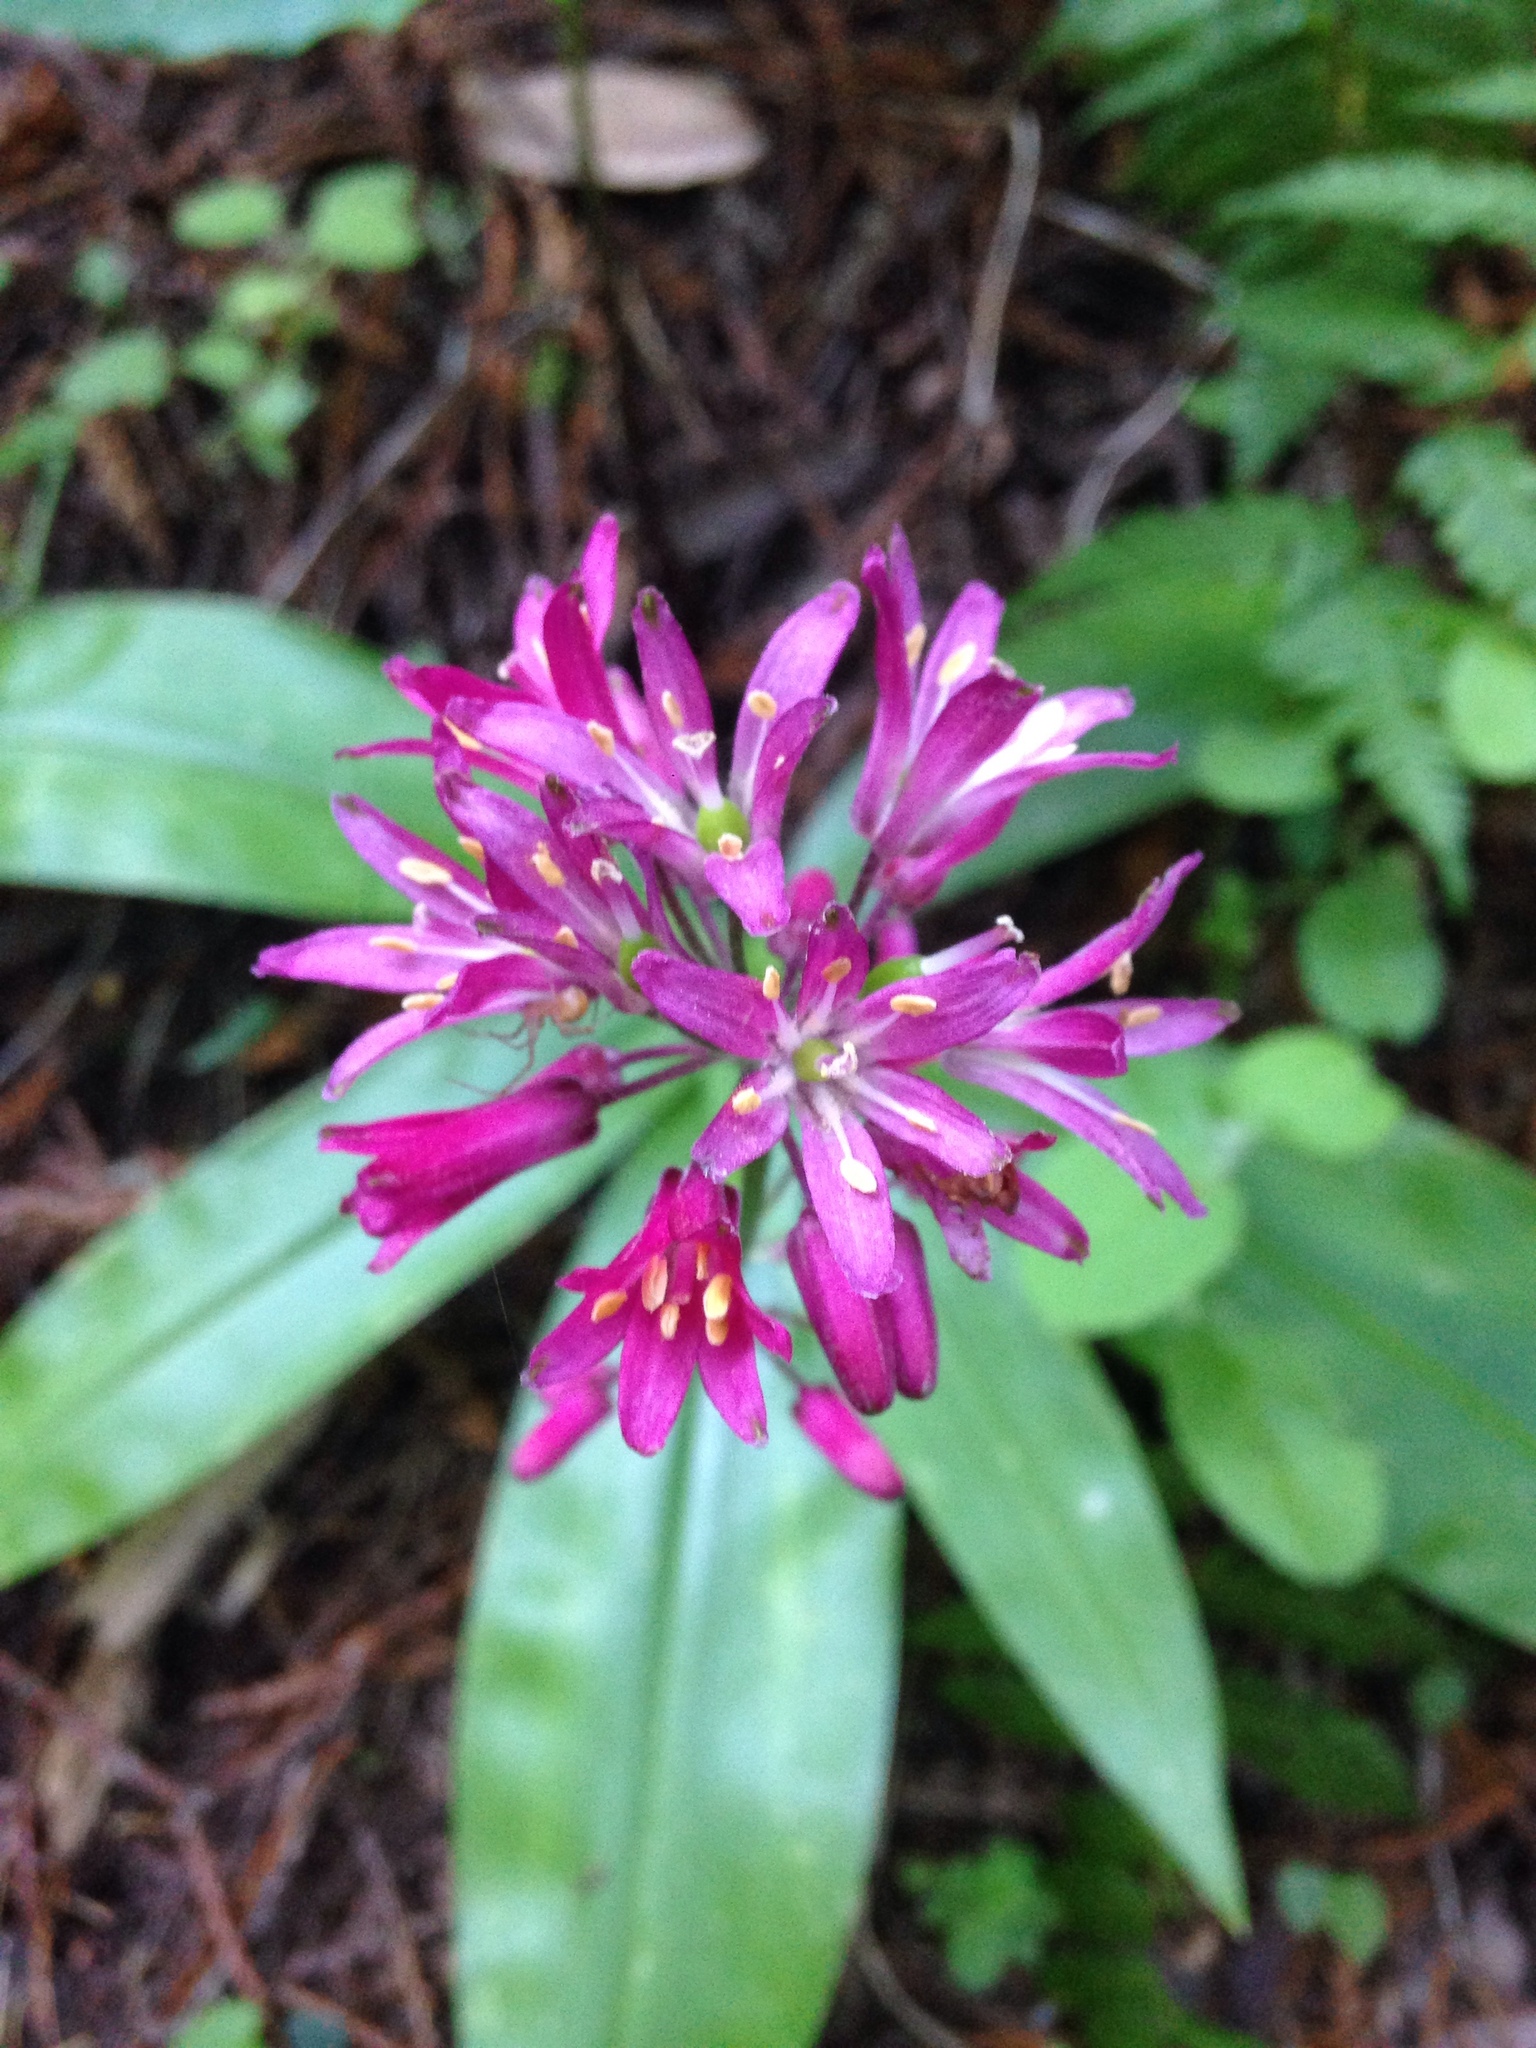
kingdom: Plantae
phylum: Tracheophyta
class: Liliopsida
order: Liliales
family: Liliaceae
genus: Clintonia
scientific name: Clintonia andrewsiana
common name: Red clintonia
